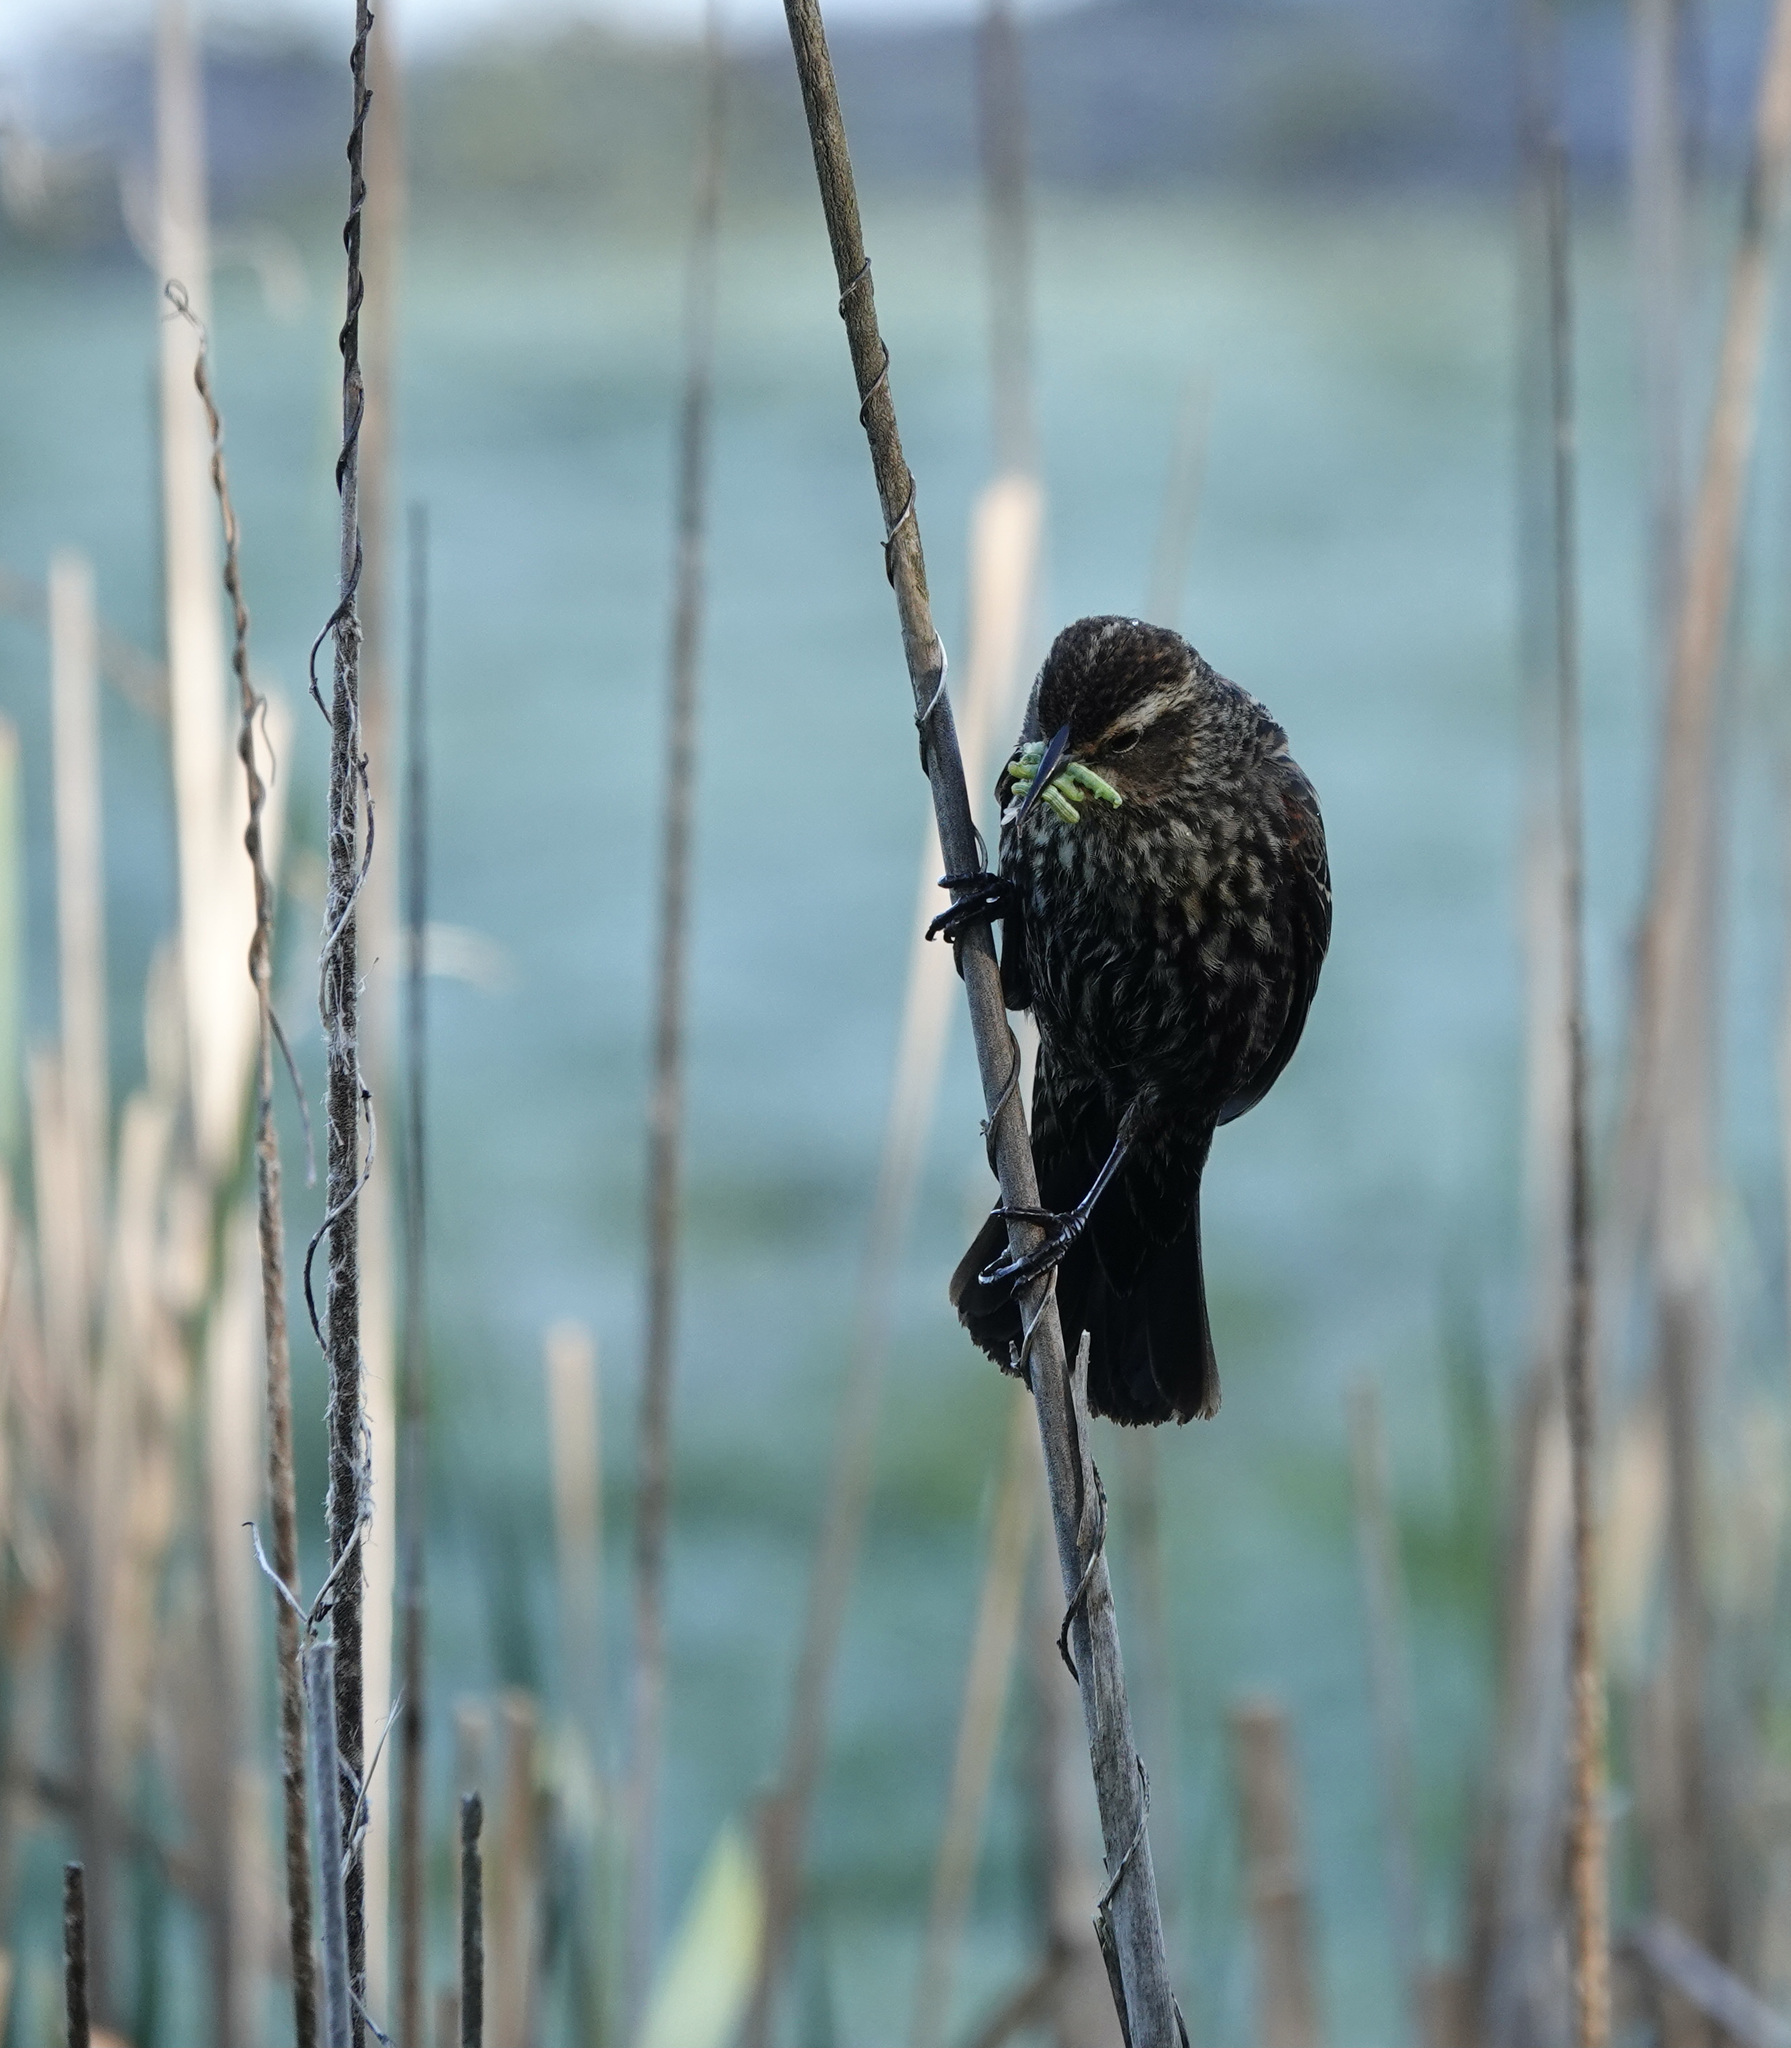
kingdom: Animalia
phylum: Chordata
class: Aves
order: Passeriformes
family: Icteridae
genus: Agelaius
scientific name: Agelaius phoeniceus
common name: Red-winged blackbird
